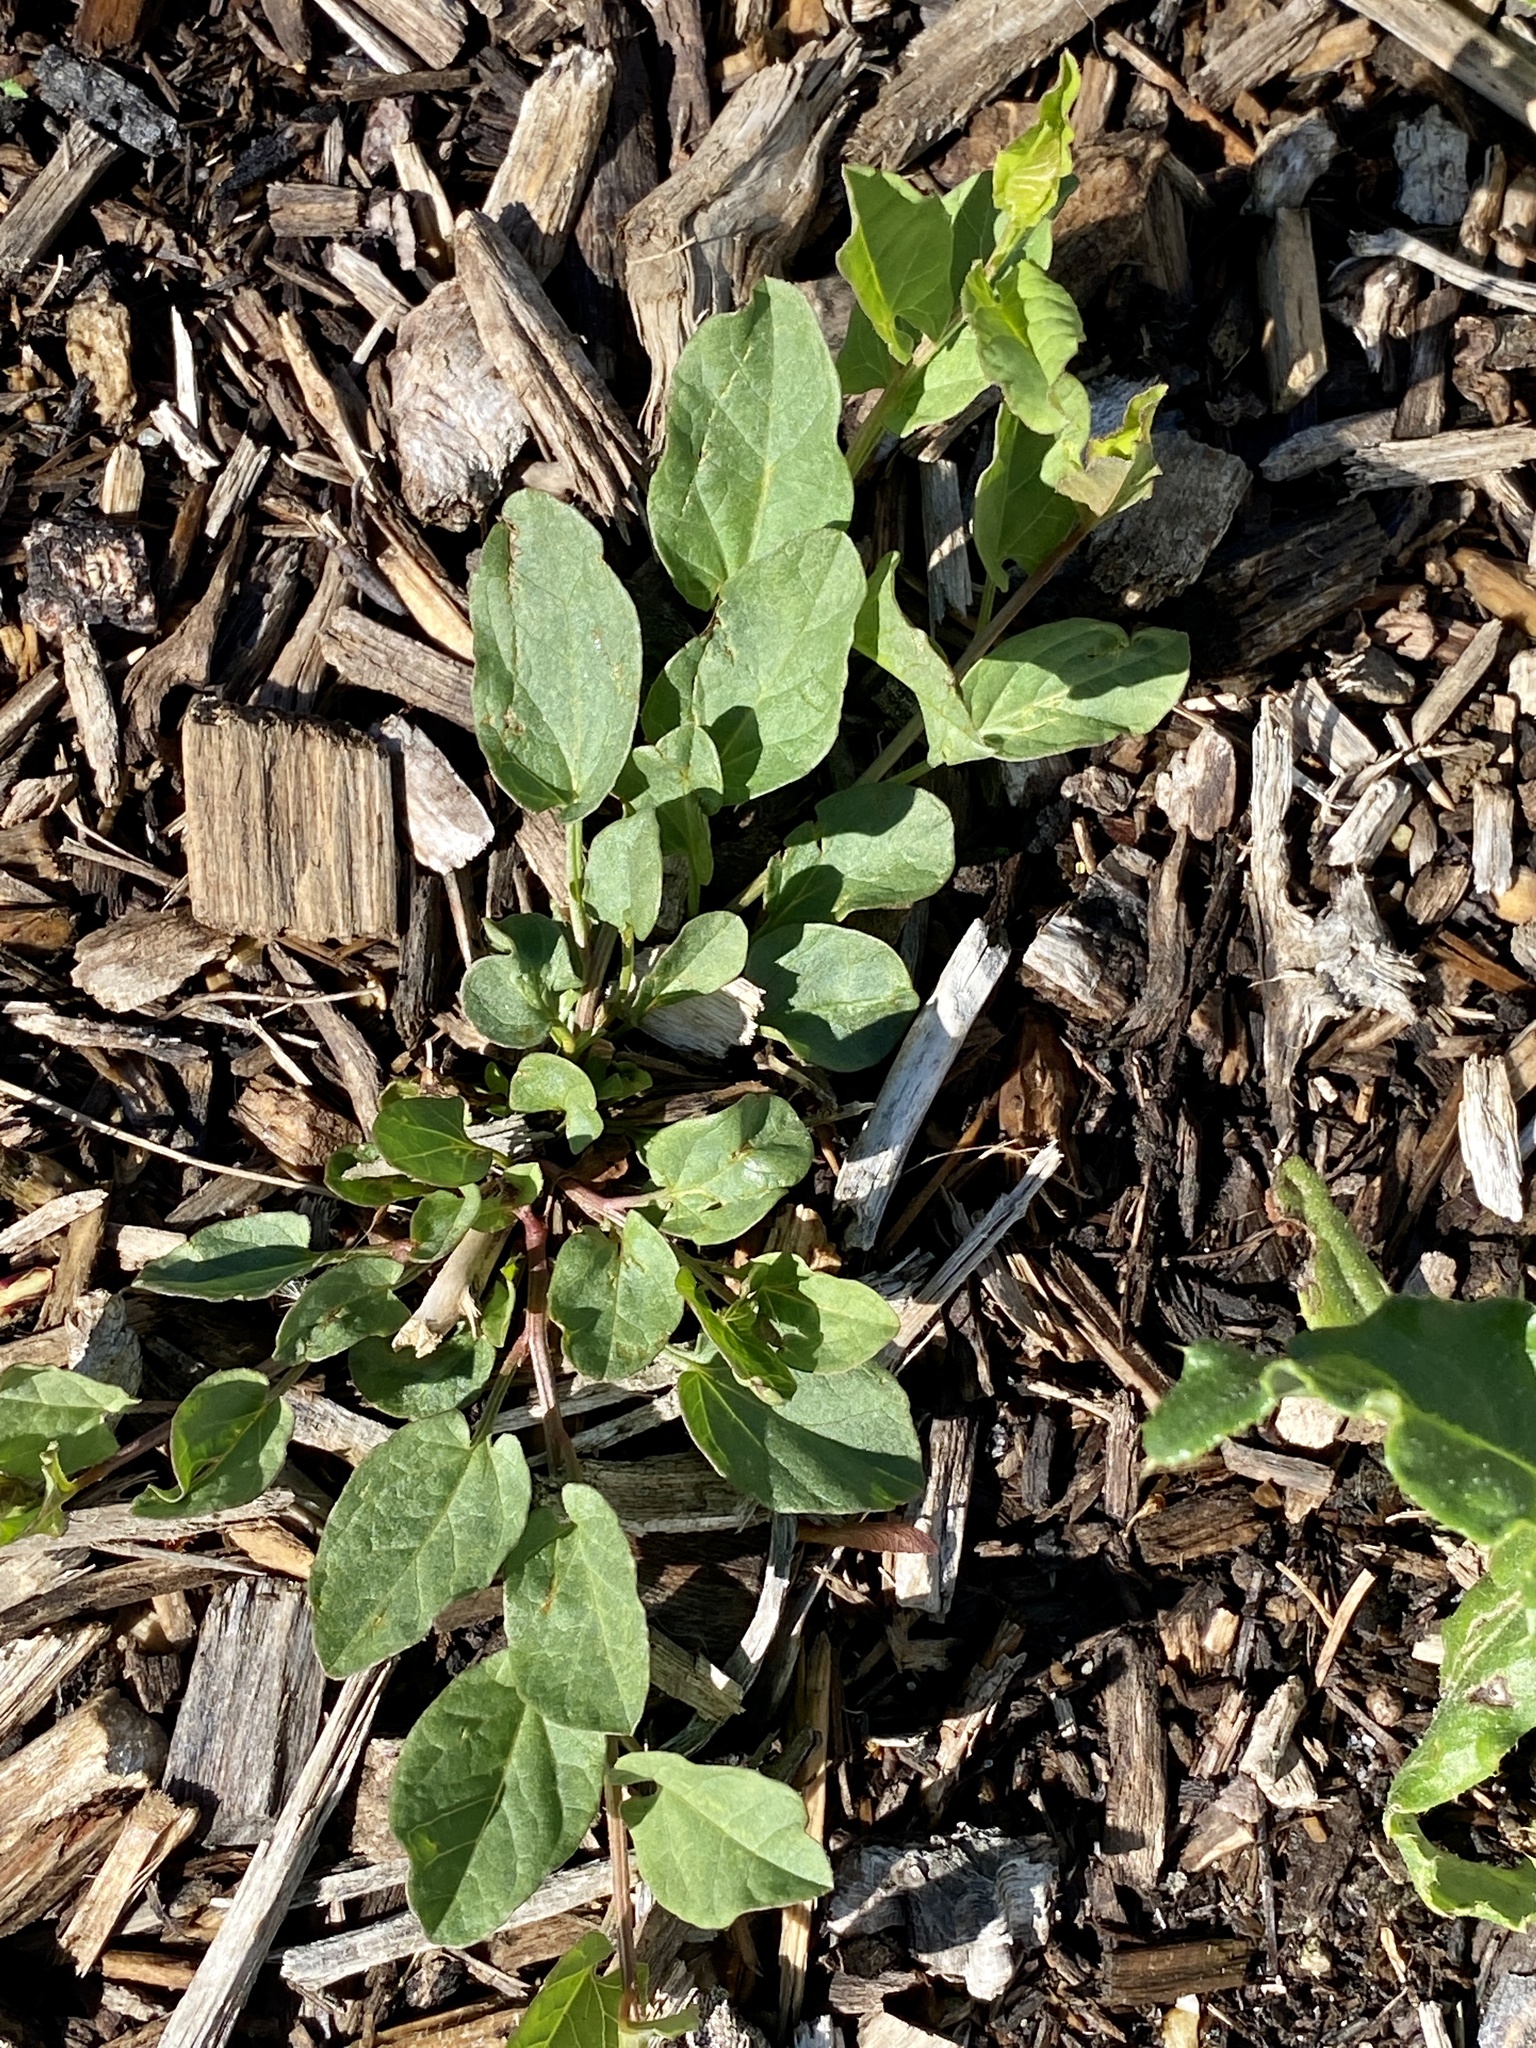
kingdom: Plantae
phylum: Tracheophyta
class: Magnoliopsida
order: Solanales
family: Convolvulaceae
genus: Convolvulus
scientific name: Convolvulus arvensis
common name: Field bindweed
